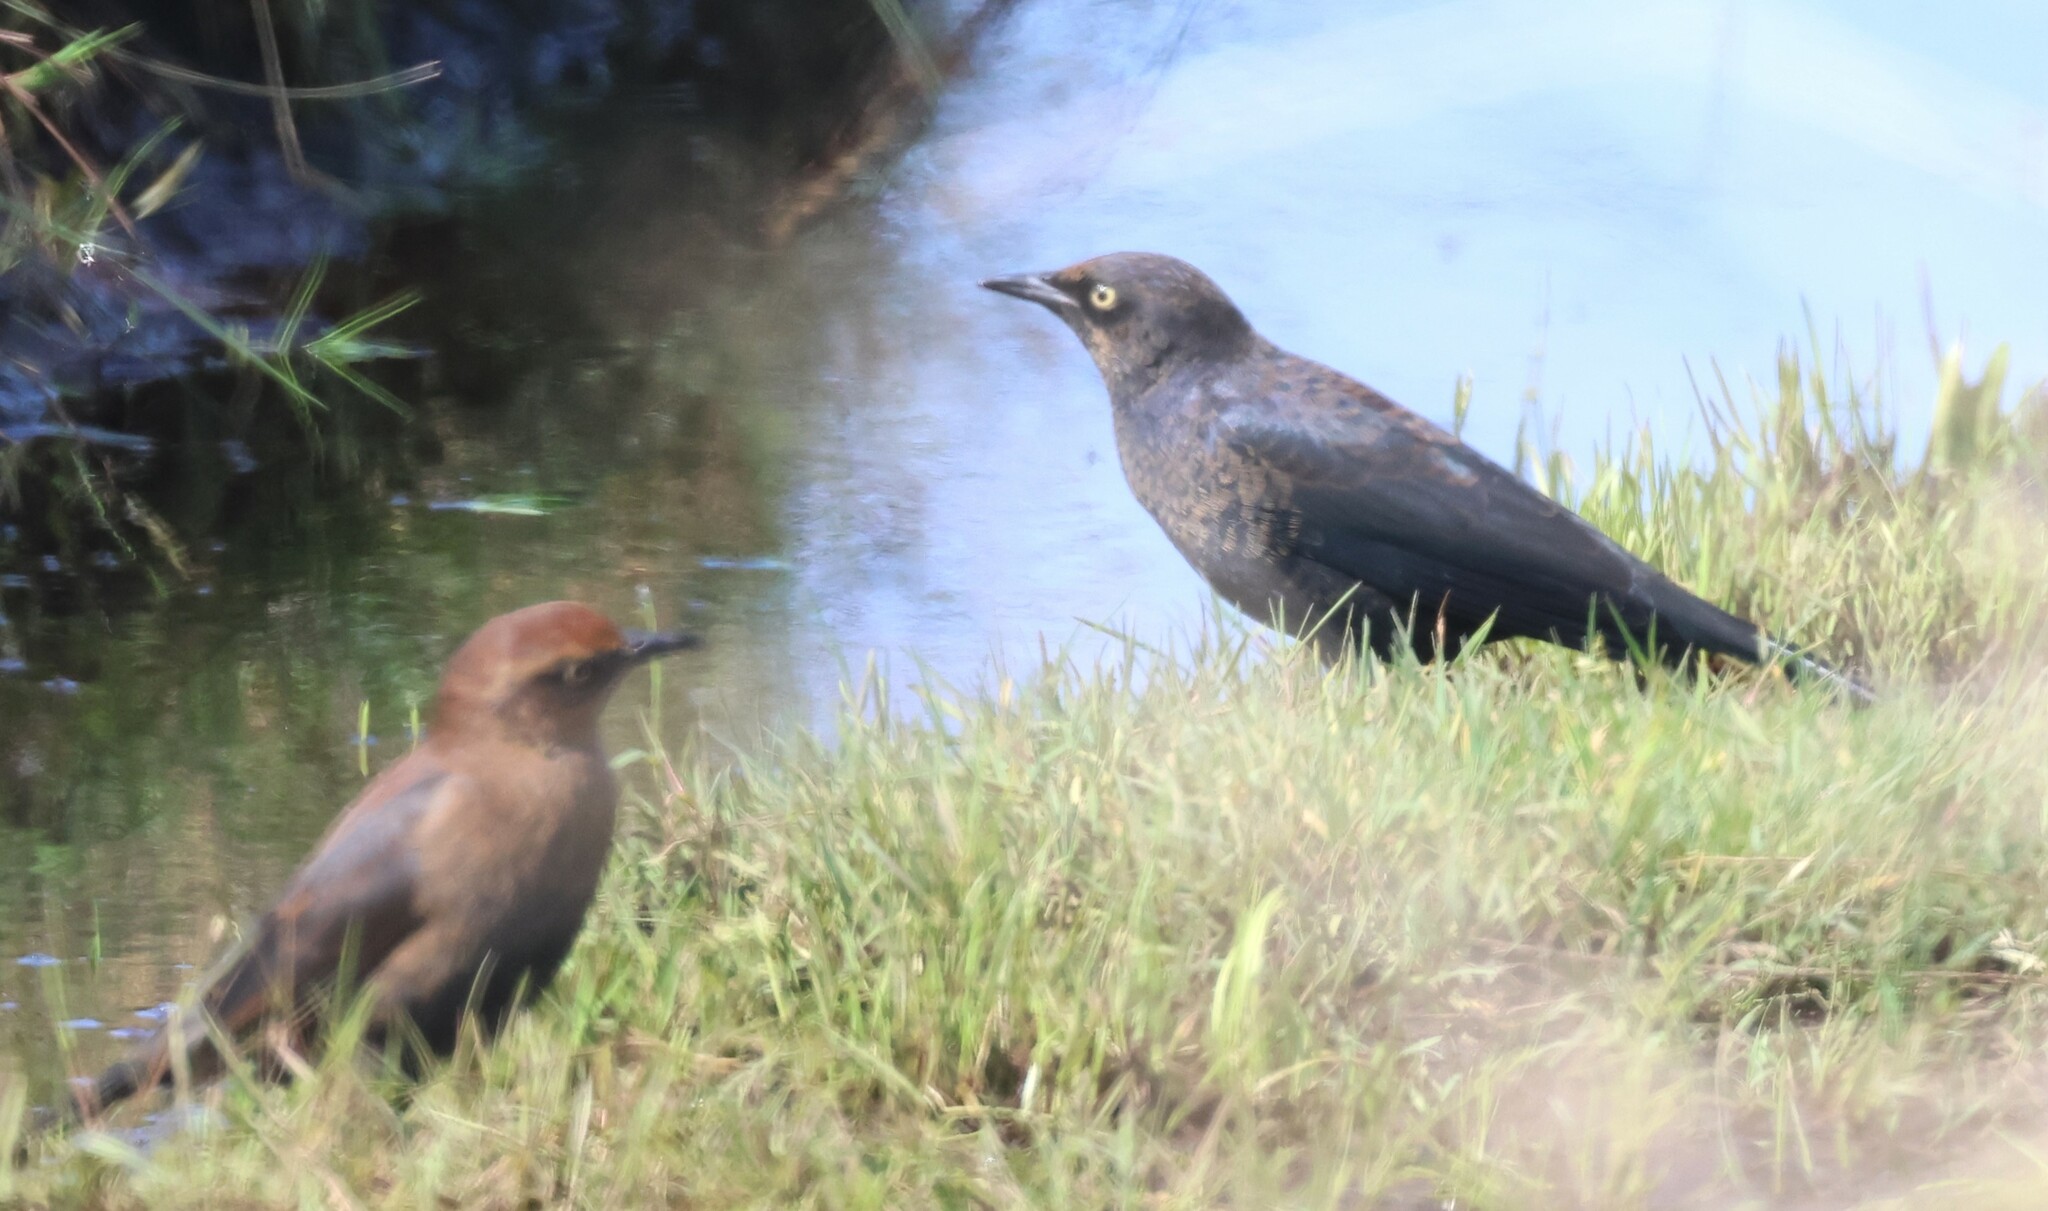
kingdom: Animalia
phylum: Chordata
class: Aves
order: Passeriformes
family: Icteridae
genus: Euphagus
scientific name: Euphagus carolinus
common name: Rusty blackbird
